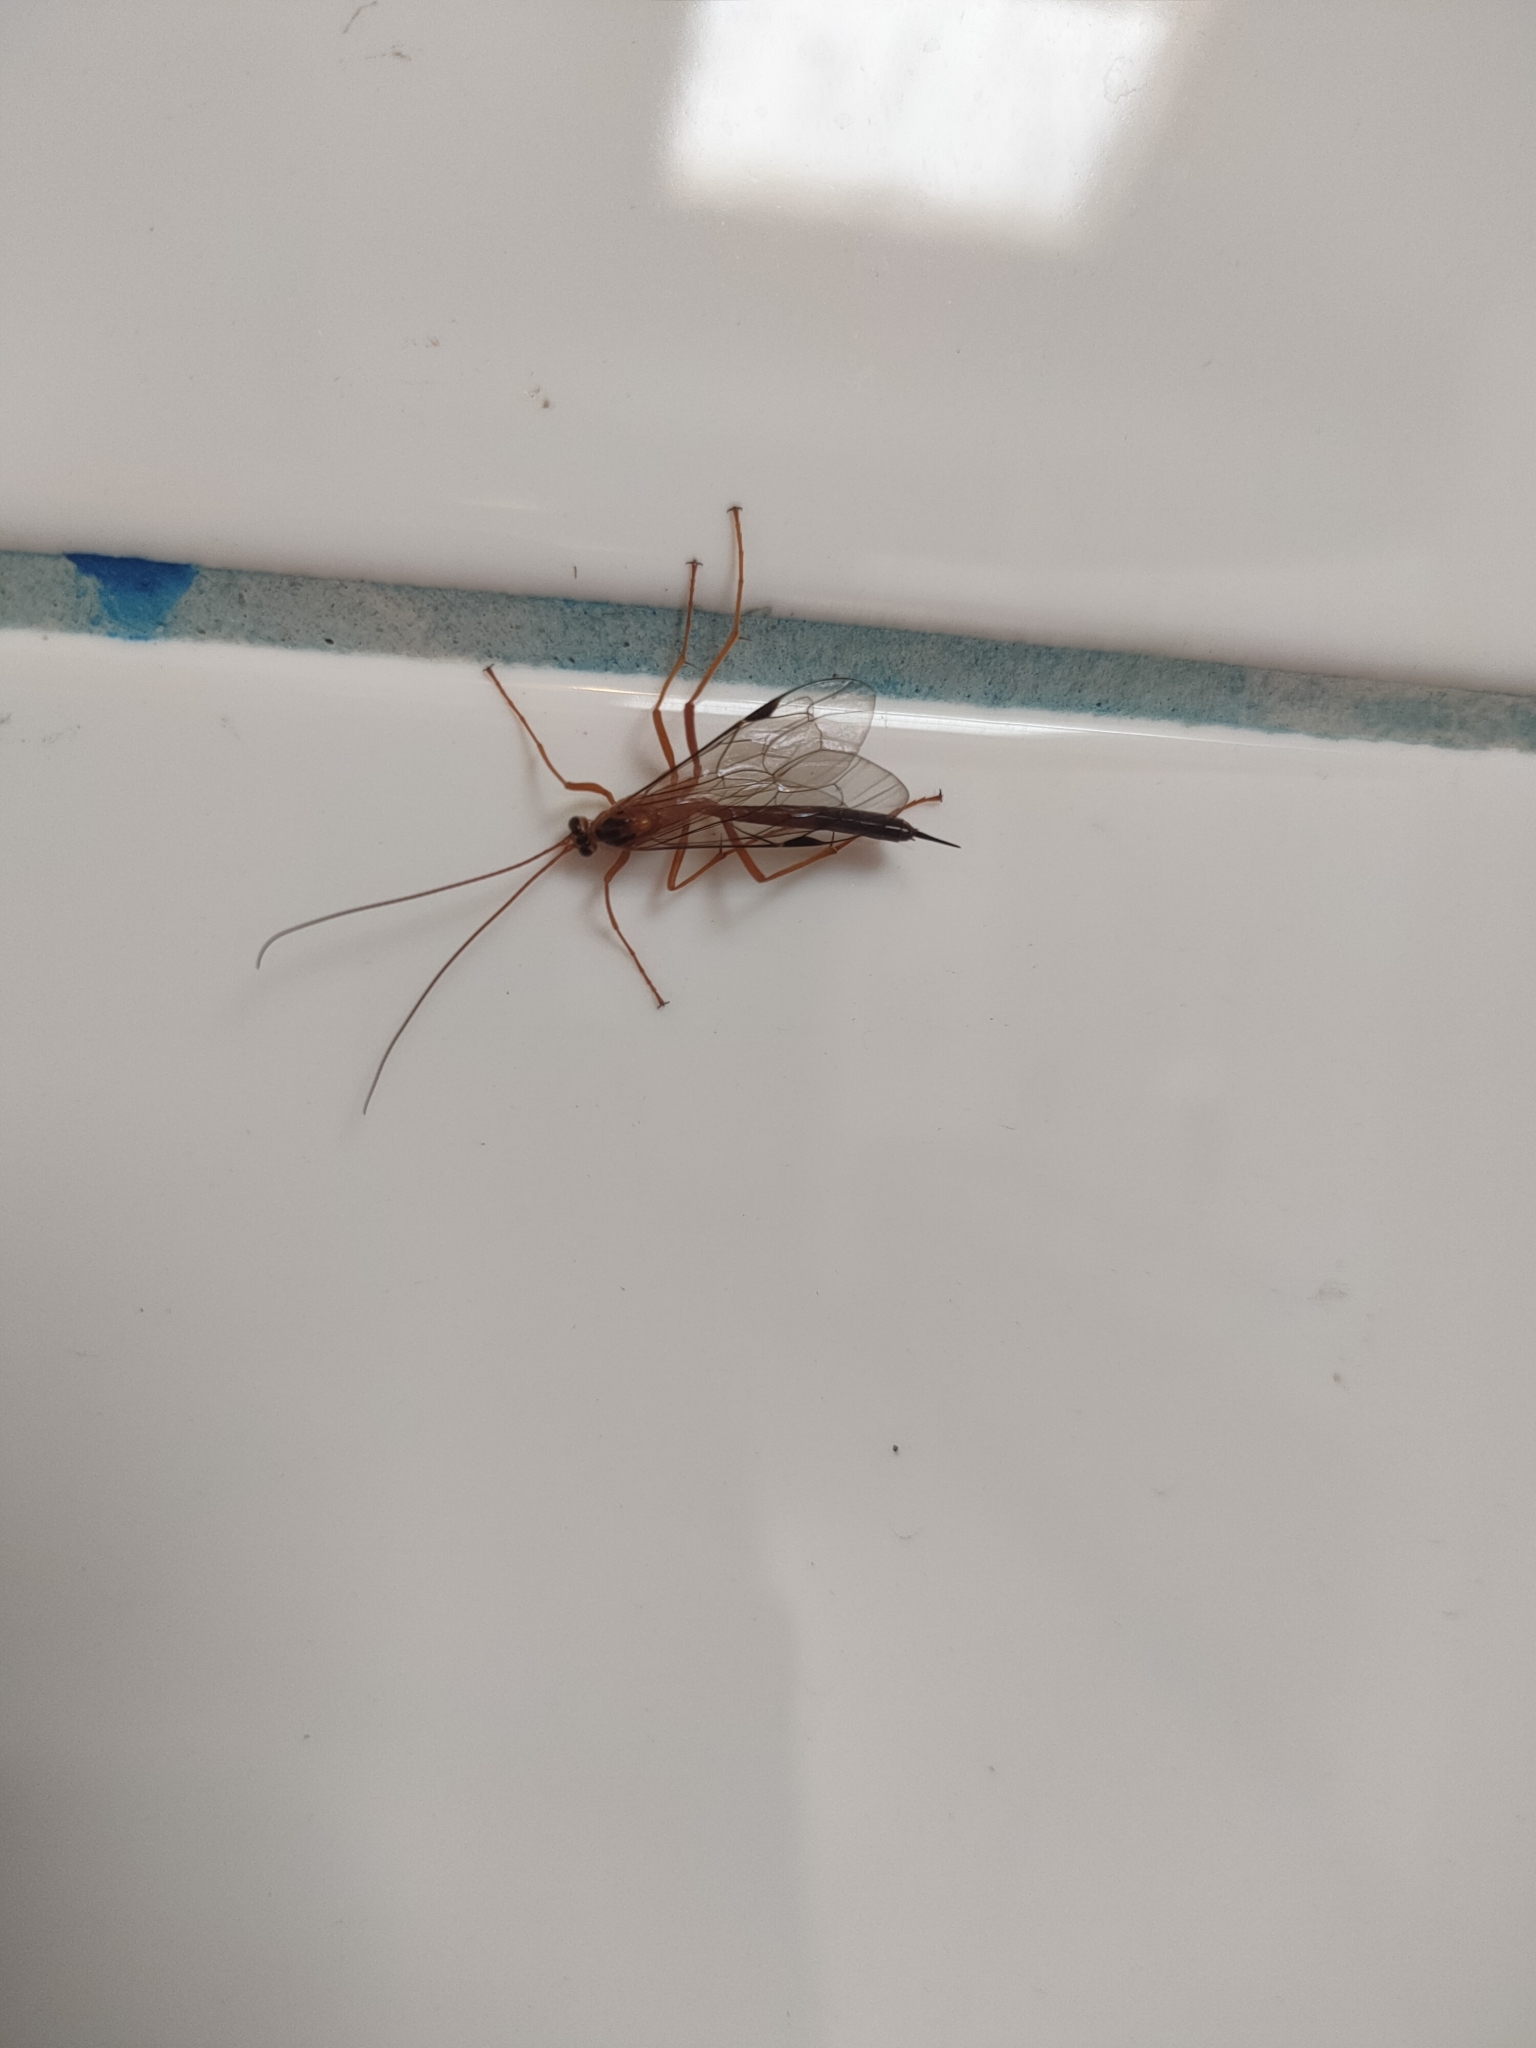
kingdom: Animalia
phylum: Arthropoda
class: Insecta
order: Hymenoptera
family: Ichneumonidae
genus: Netelia
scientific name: Netelia ephippiata
